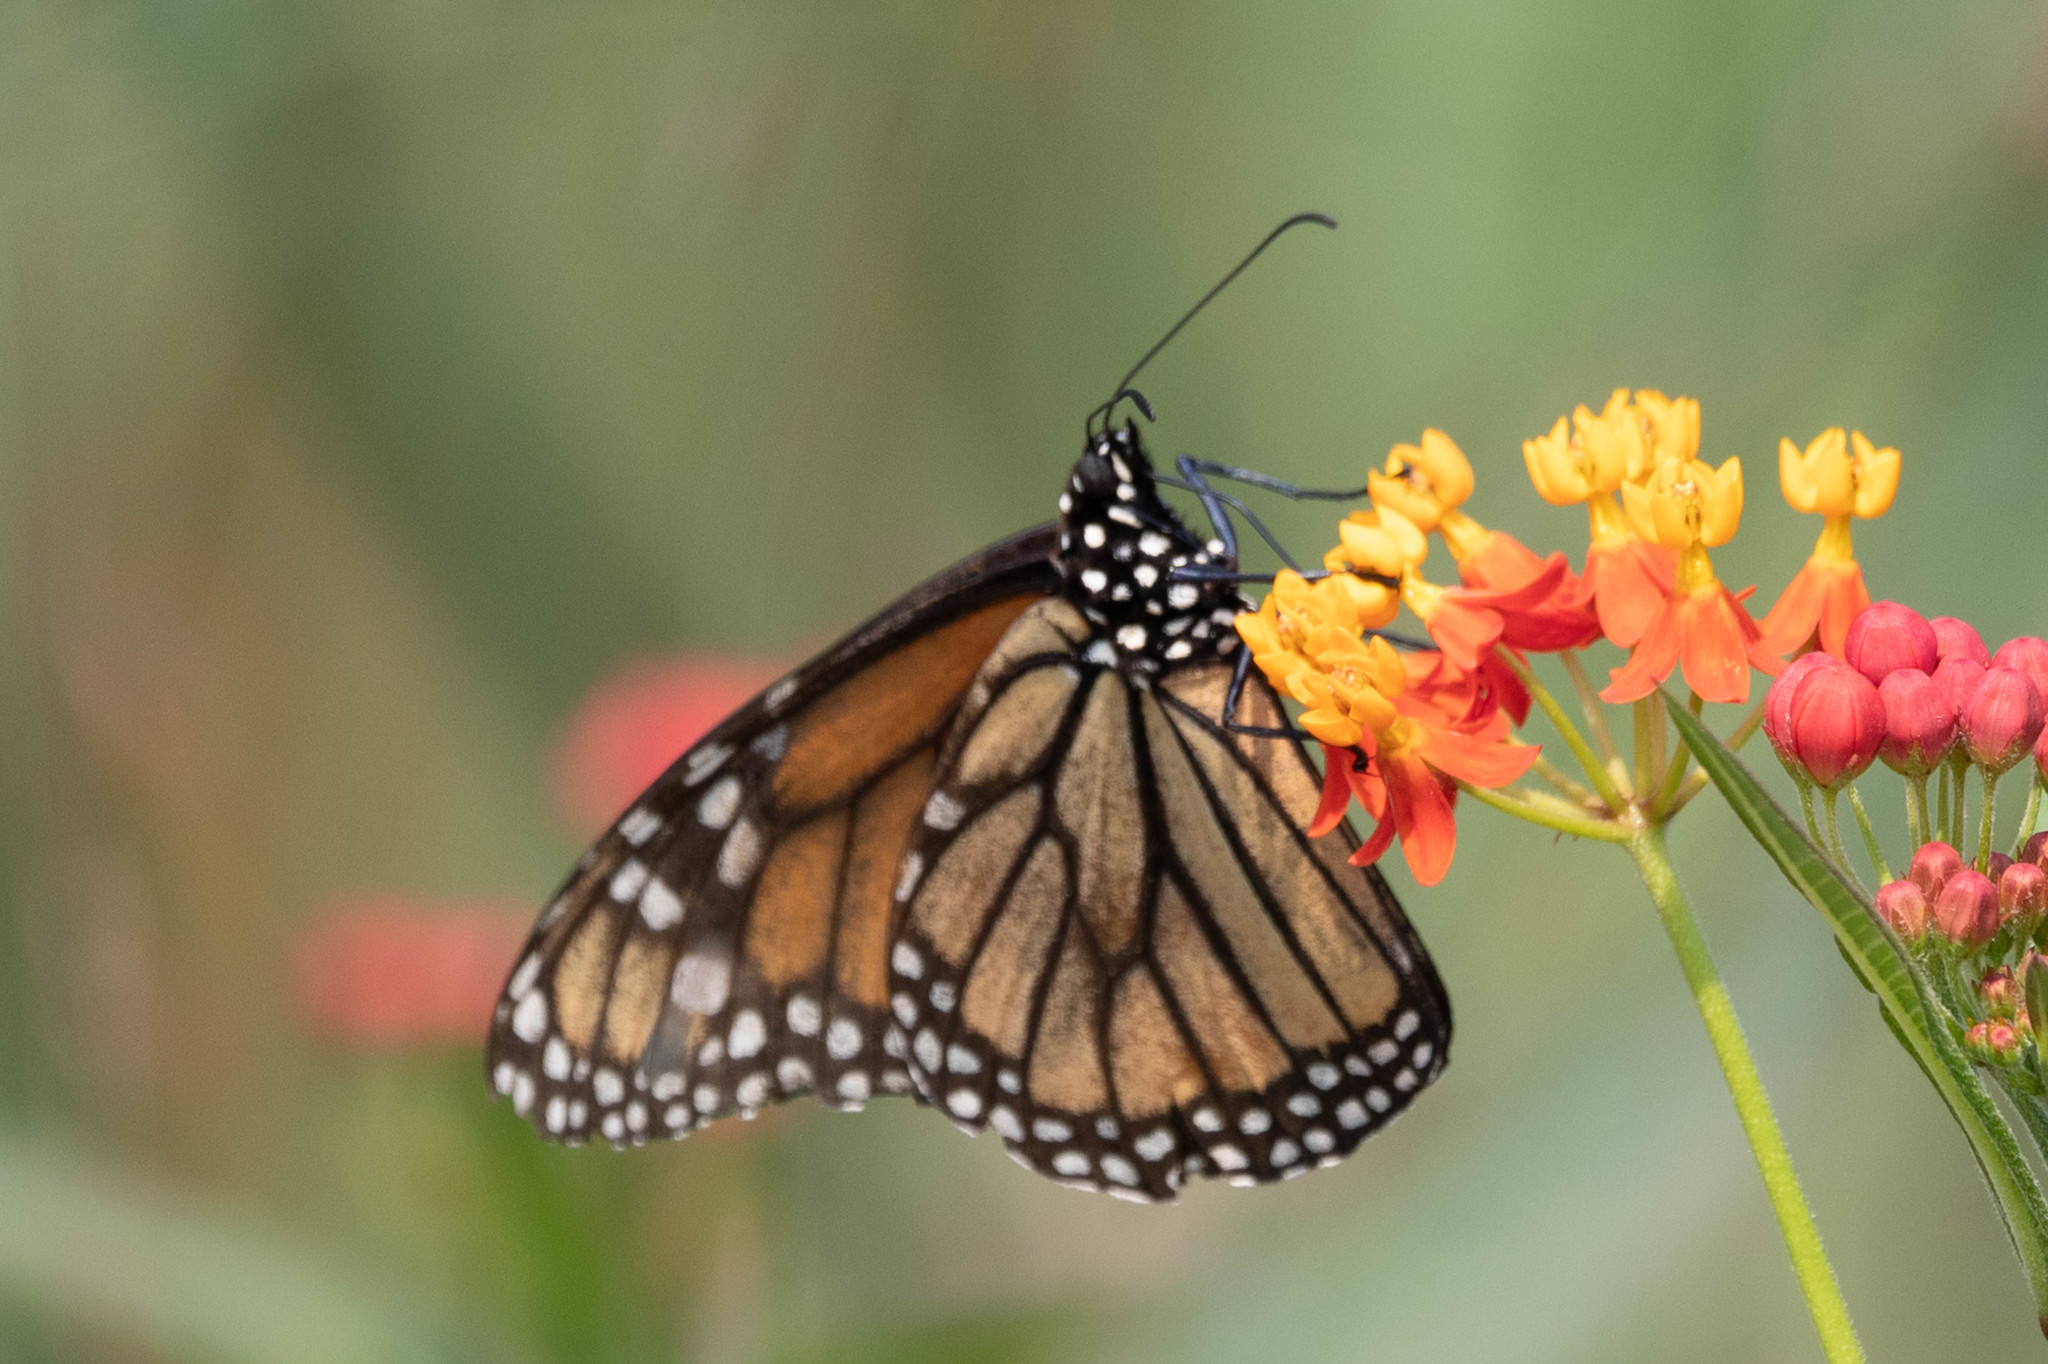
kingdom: Animalia
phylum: Arthropoda
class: Insecta
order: Lepidoptera
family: Nymphalidae
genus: Danaus
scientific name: Danaus plexippus
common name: Monarch
